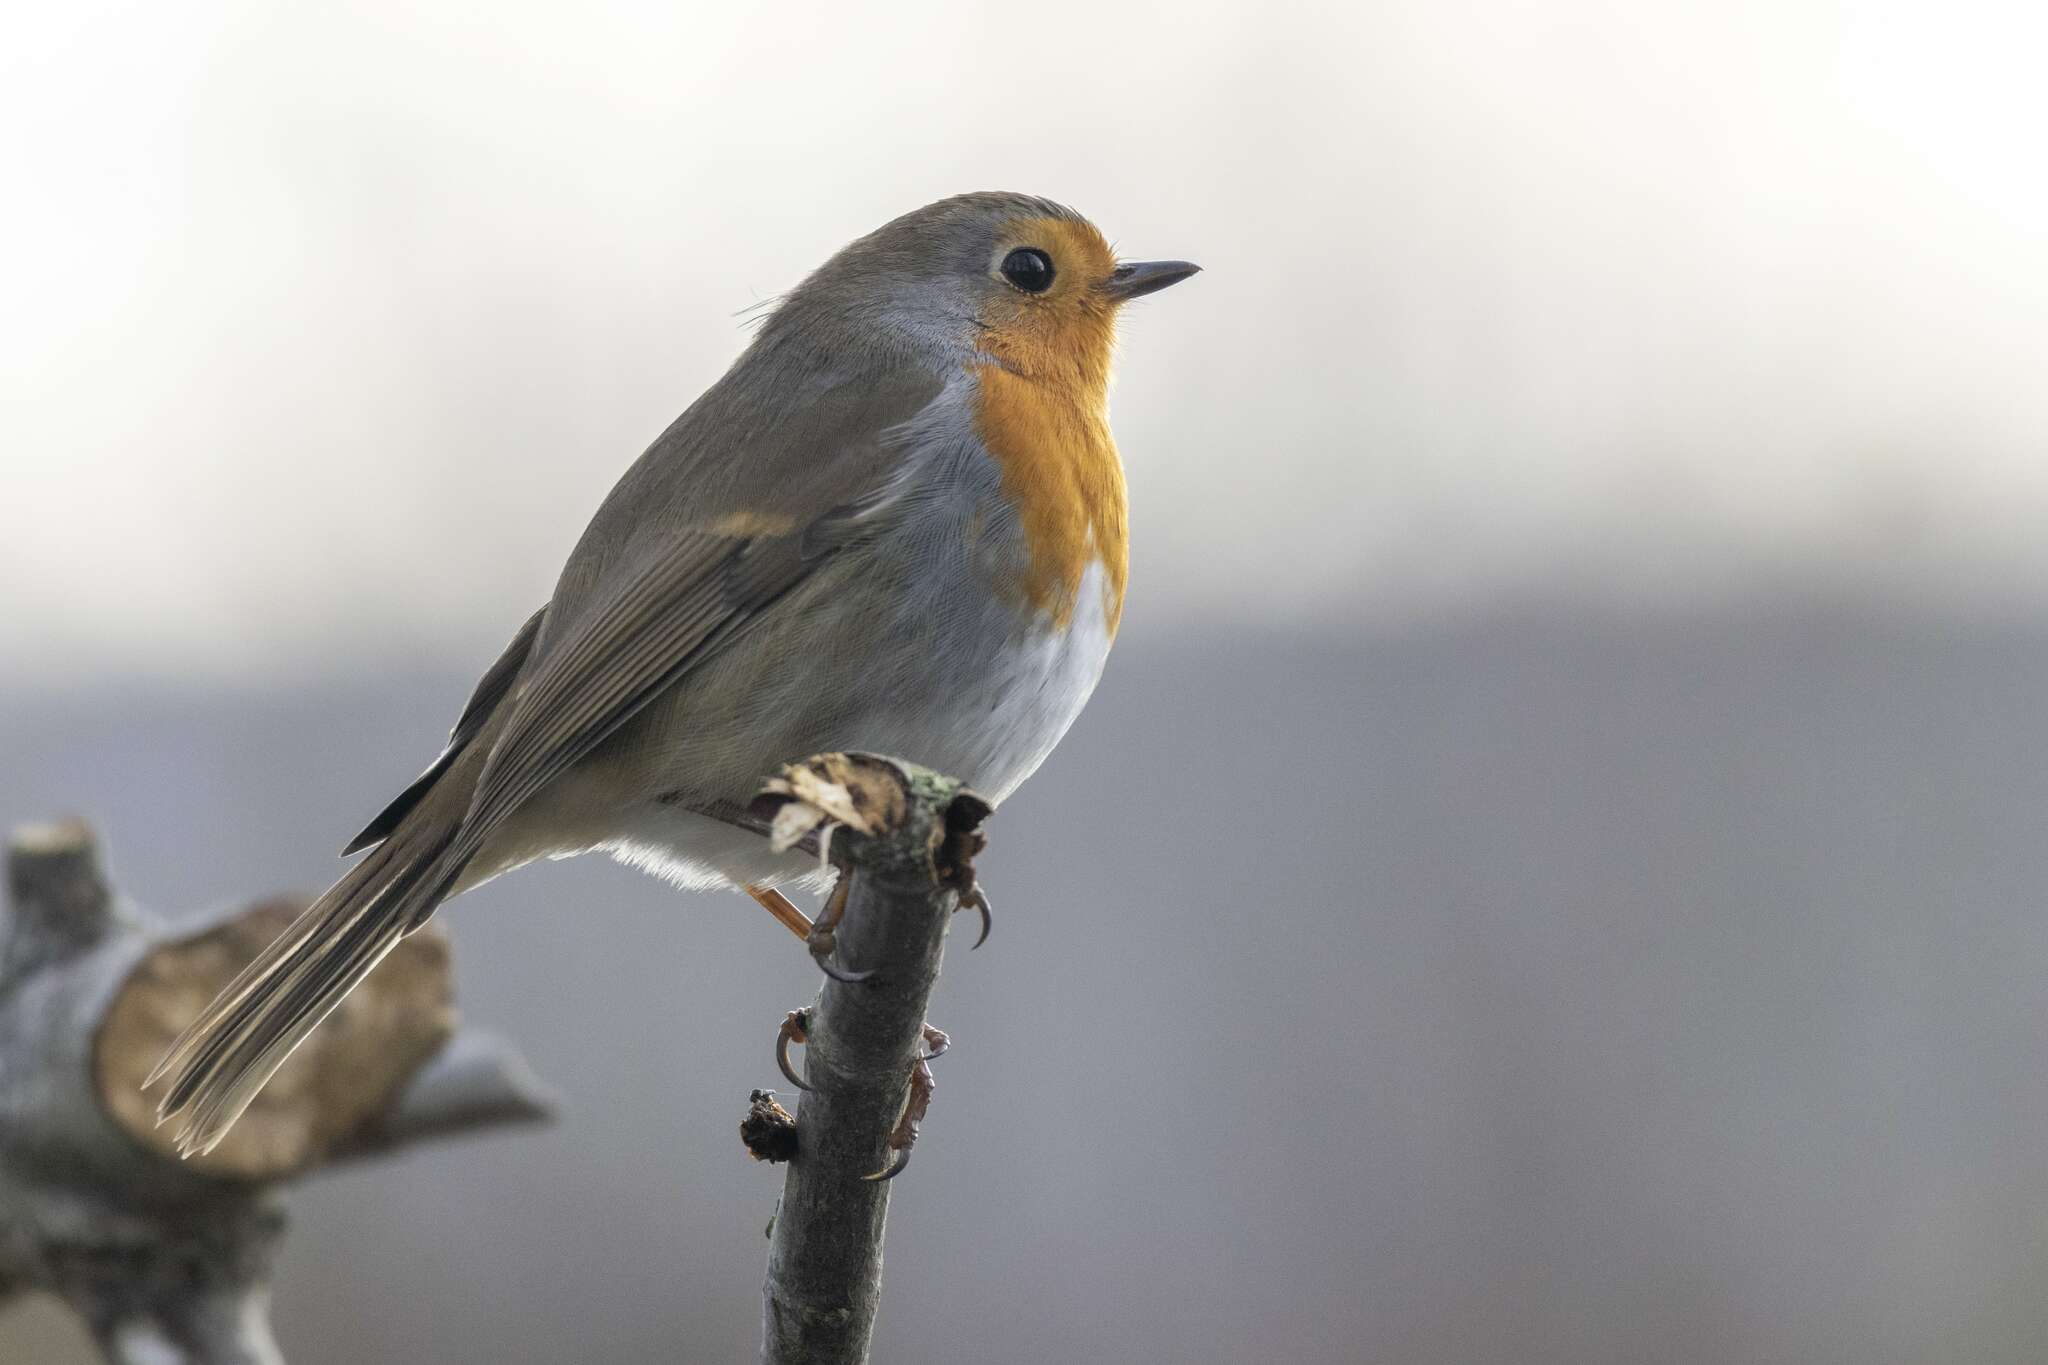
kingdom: Animalia
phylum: Chordata
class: Aves
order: Passeriformes
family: Muscicapidae
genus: Erithacus
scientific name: Erithacus rubecula
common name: European robin
